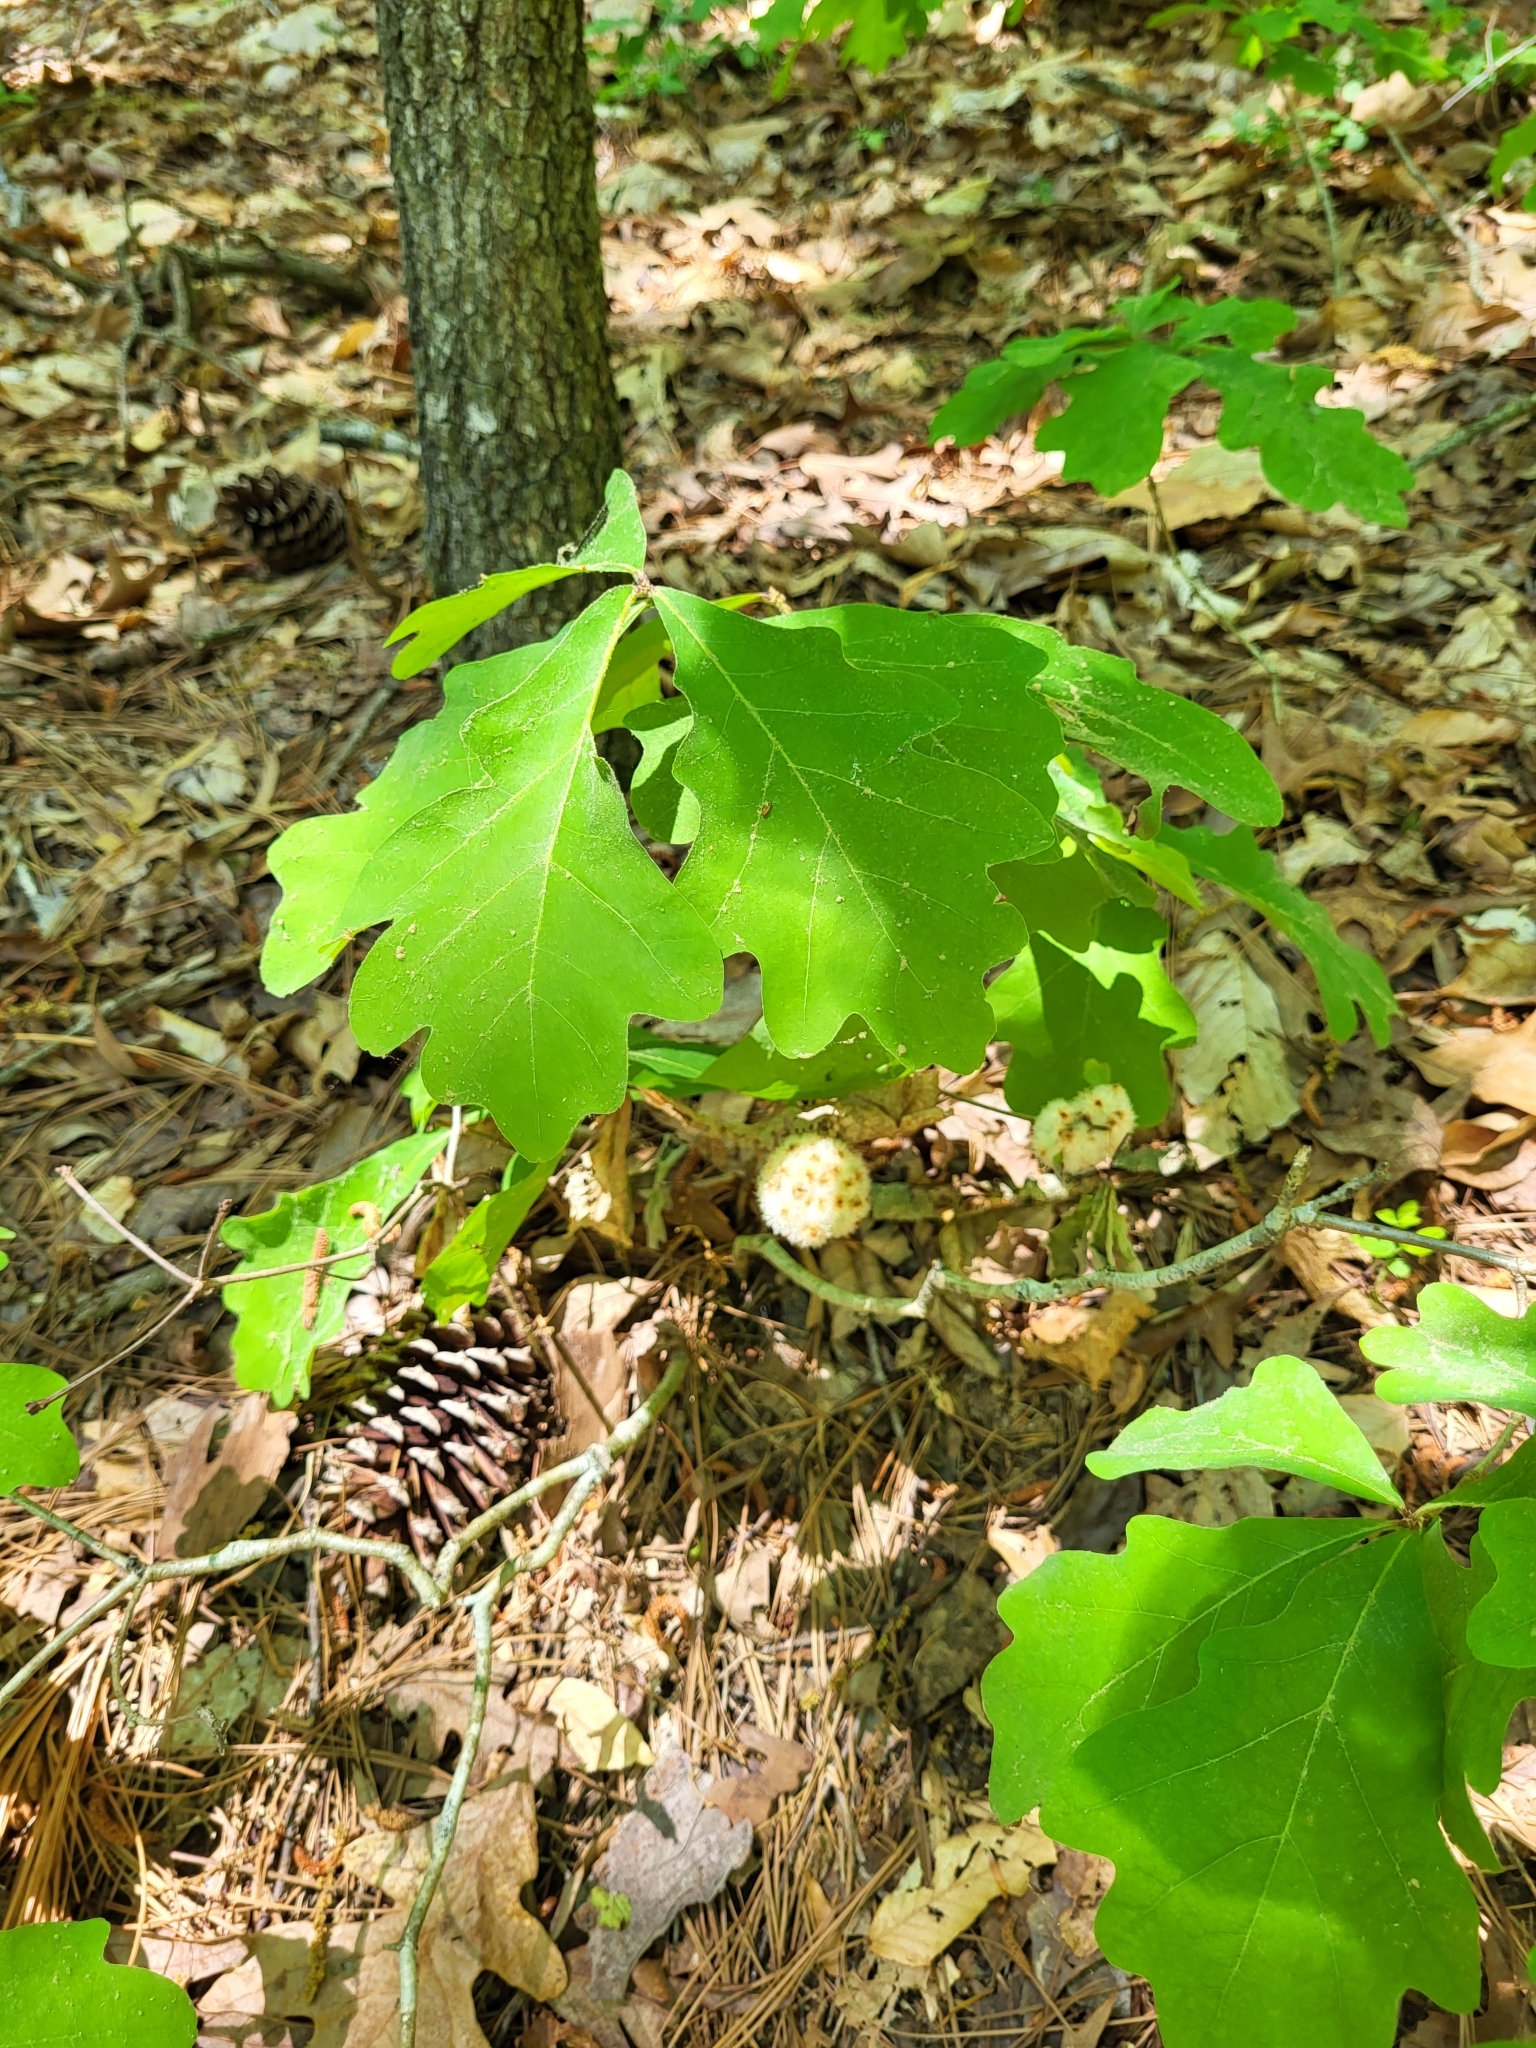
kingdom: Animalia
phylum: Arthropoda
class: Insecta
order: Hymenoptera
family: Cynipidae
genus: Callirhytis
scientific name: Callirhytis
